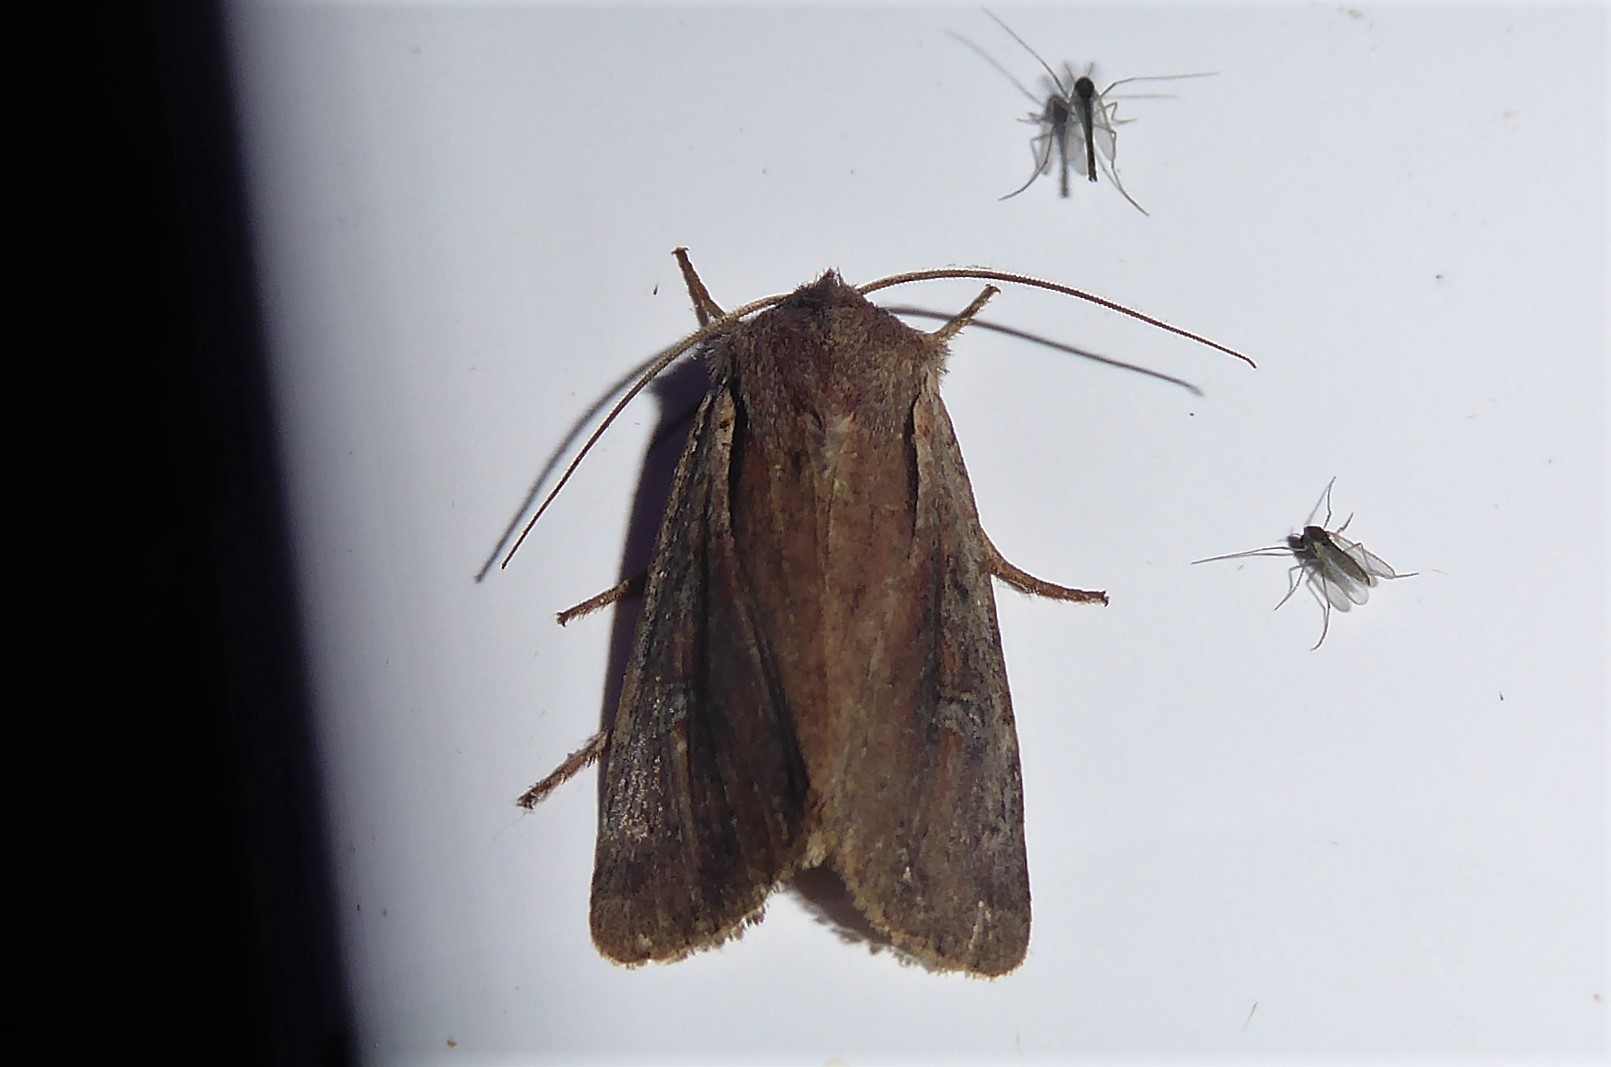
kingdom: Animalia
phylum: Arthropoda
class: Insecta
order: Lepidoptera
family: Noctuidae
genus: Ichneutica
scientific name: Ichneutica atristriga
